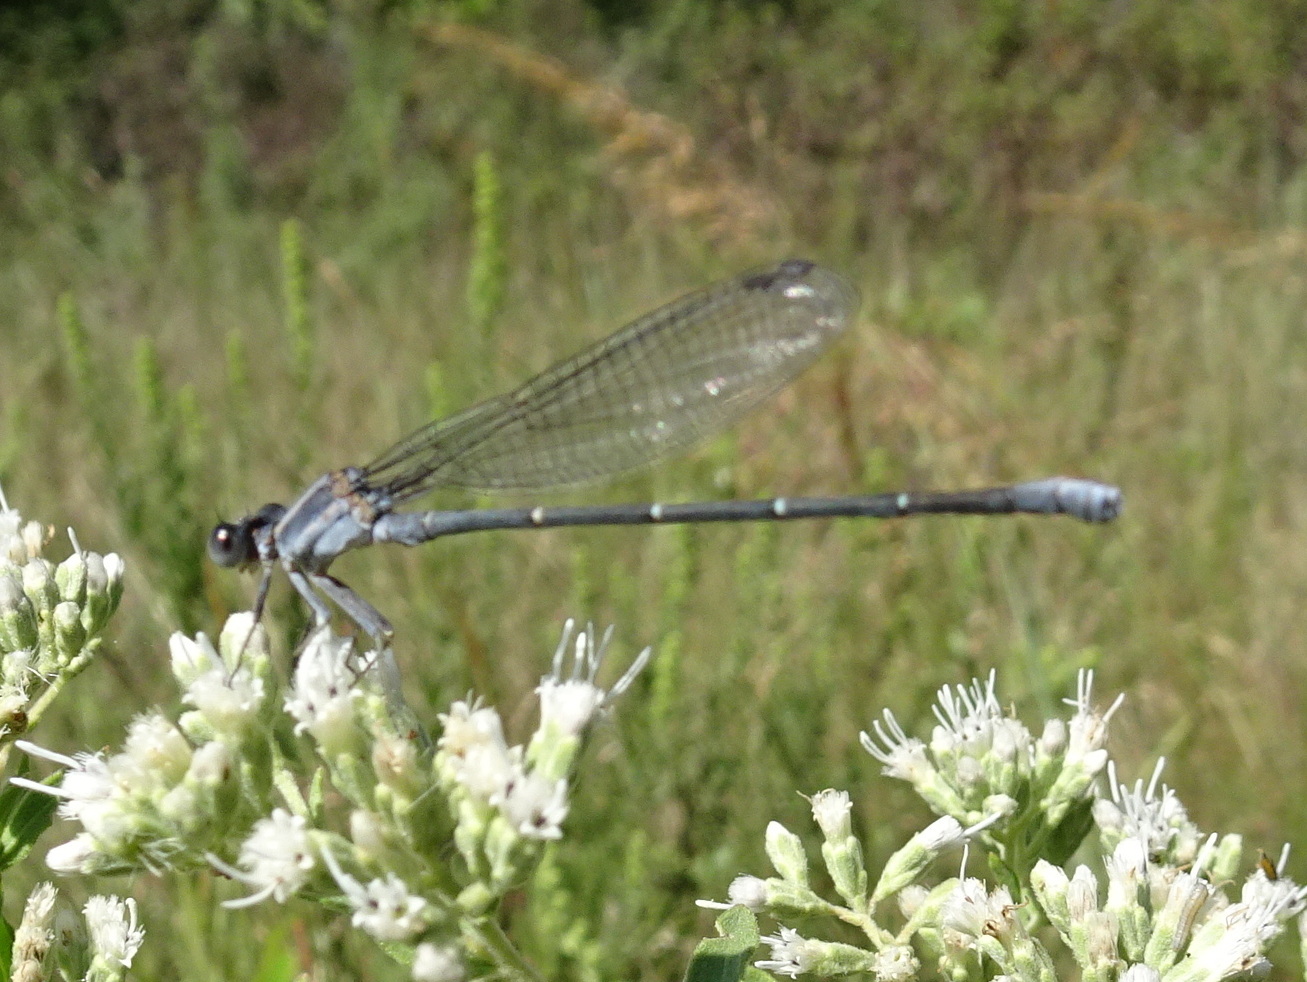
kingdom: Animalia
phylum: Arthropoda
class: Insecta
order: Odonata
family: Coenagrionidae
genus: Argia
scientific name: Argia moesta
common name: Powdered dancer
